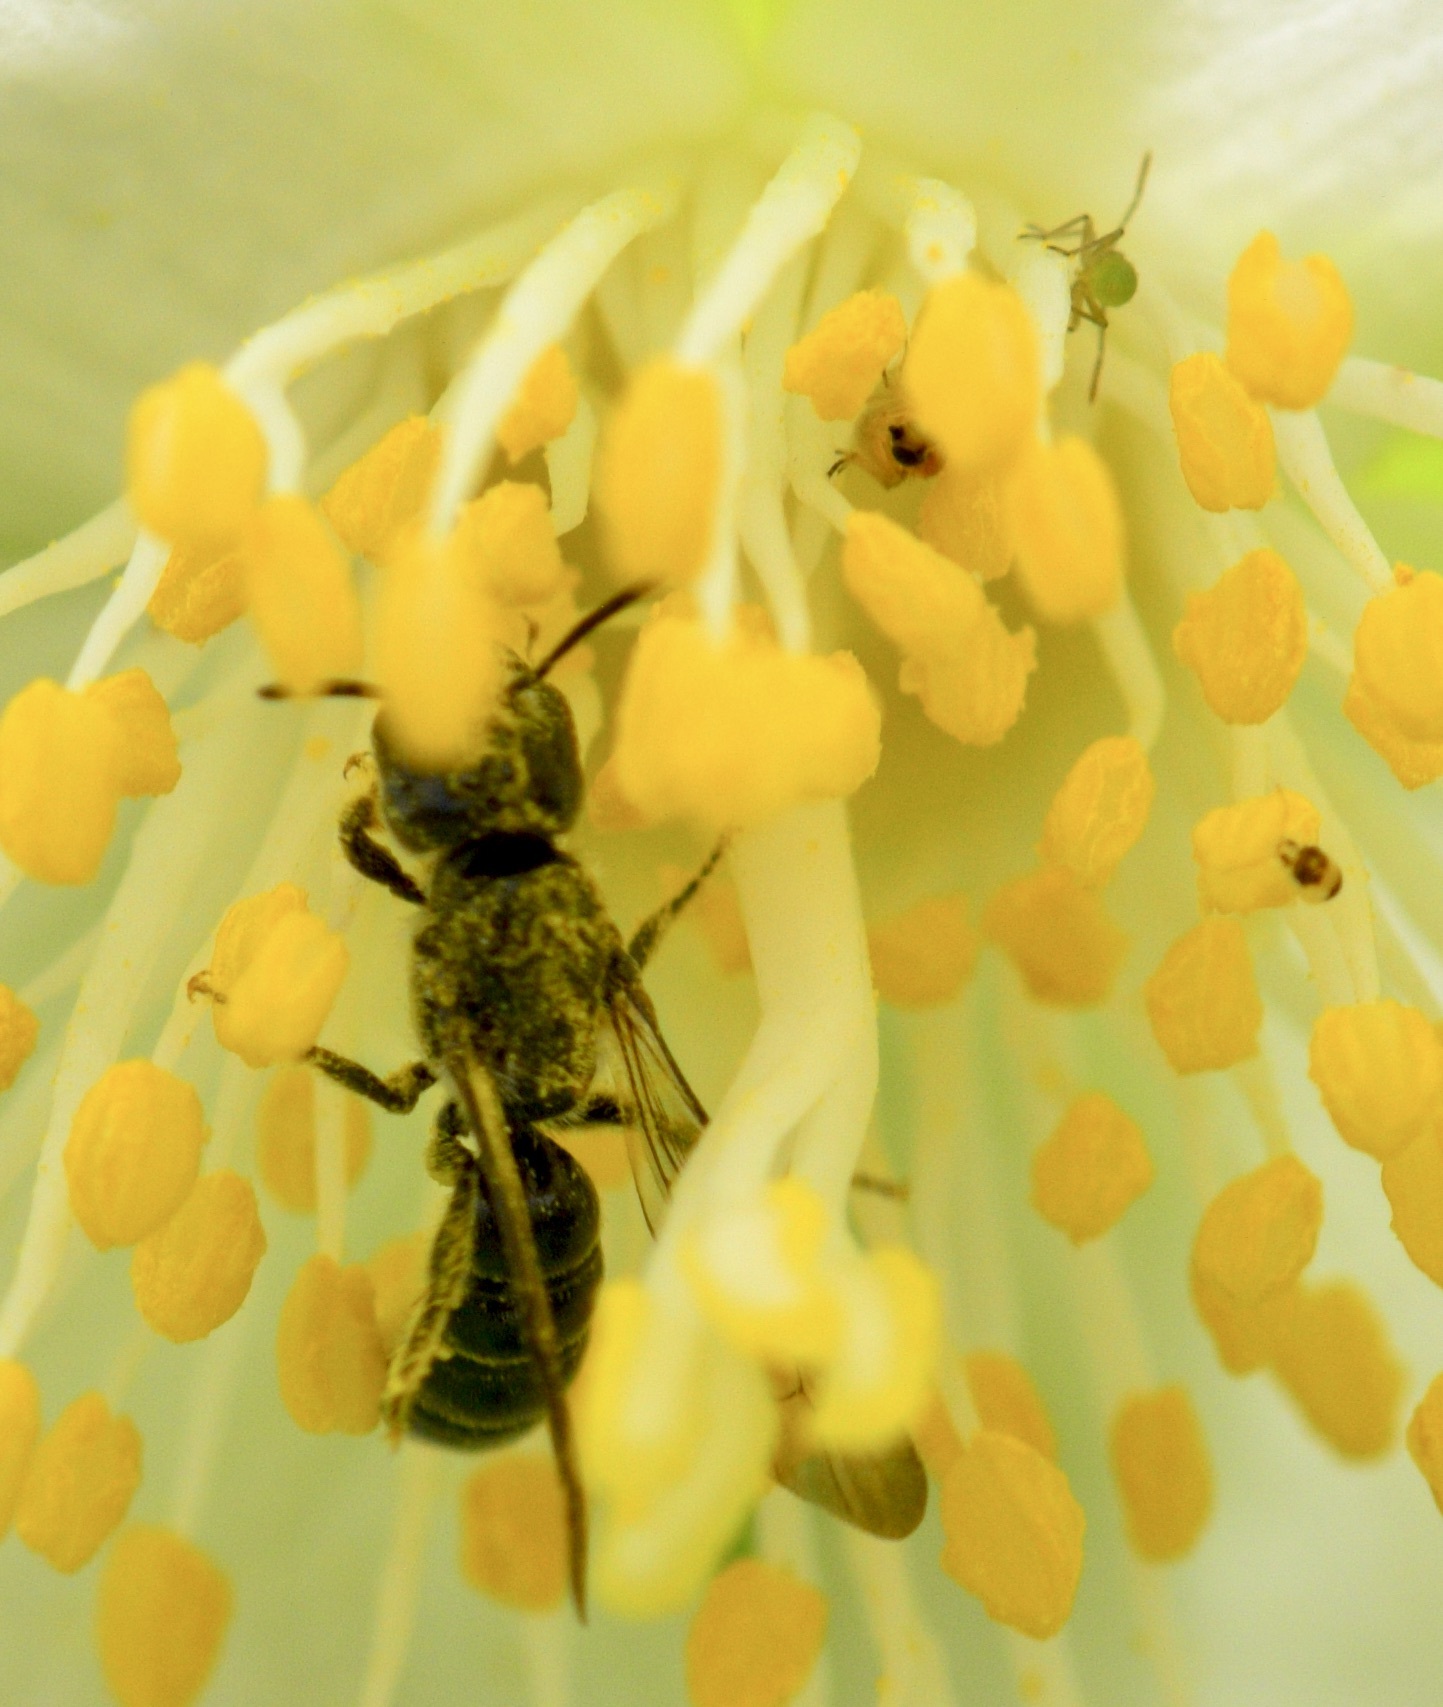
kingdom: Animalia
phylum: Arthropoda
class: Insecta
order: Hymenoptera
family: Megachilidae
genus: Chelostoma
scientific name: Chelostoma philadelphi
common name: Mock-orange scissor bee
